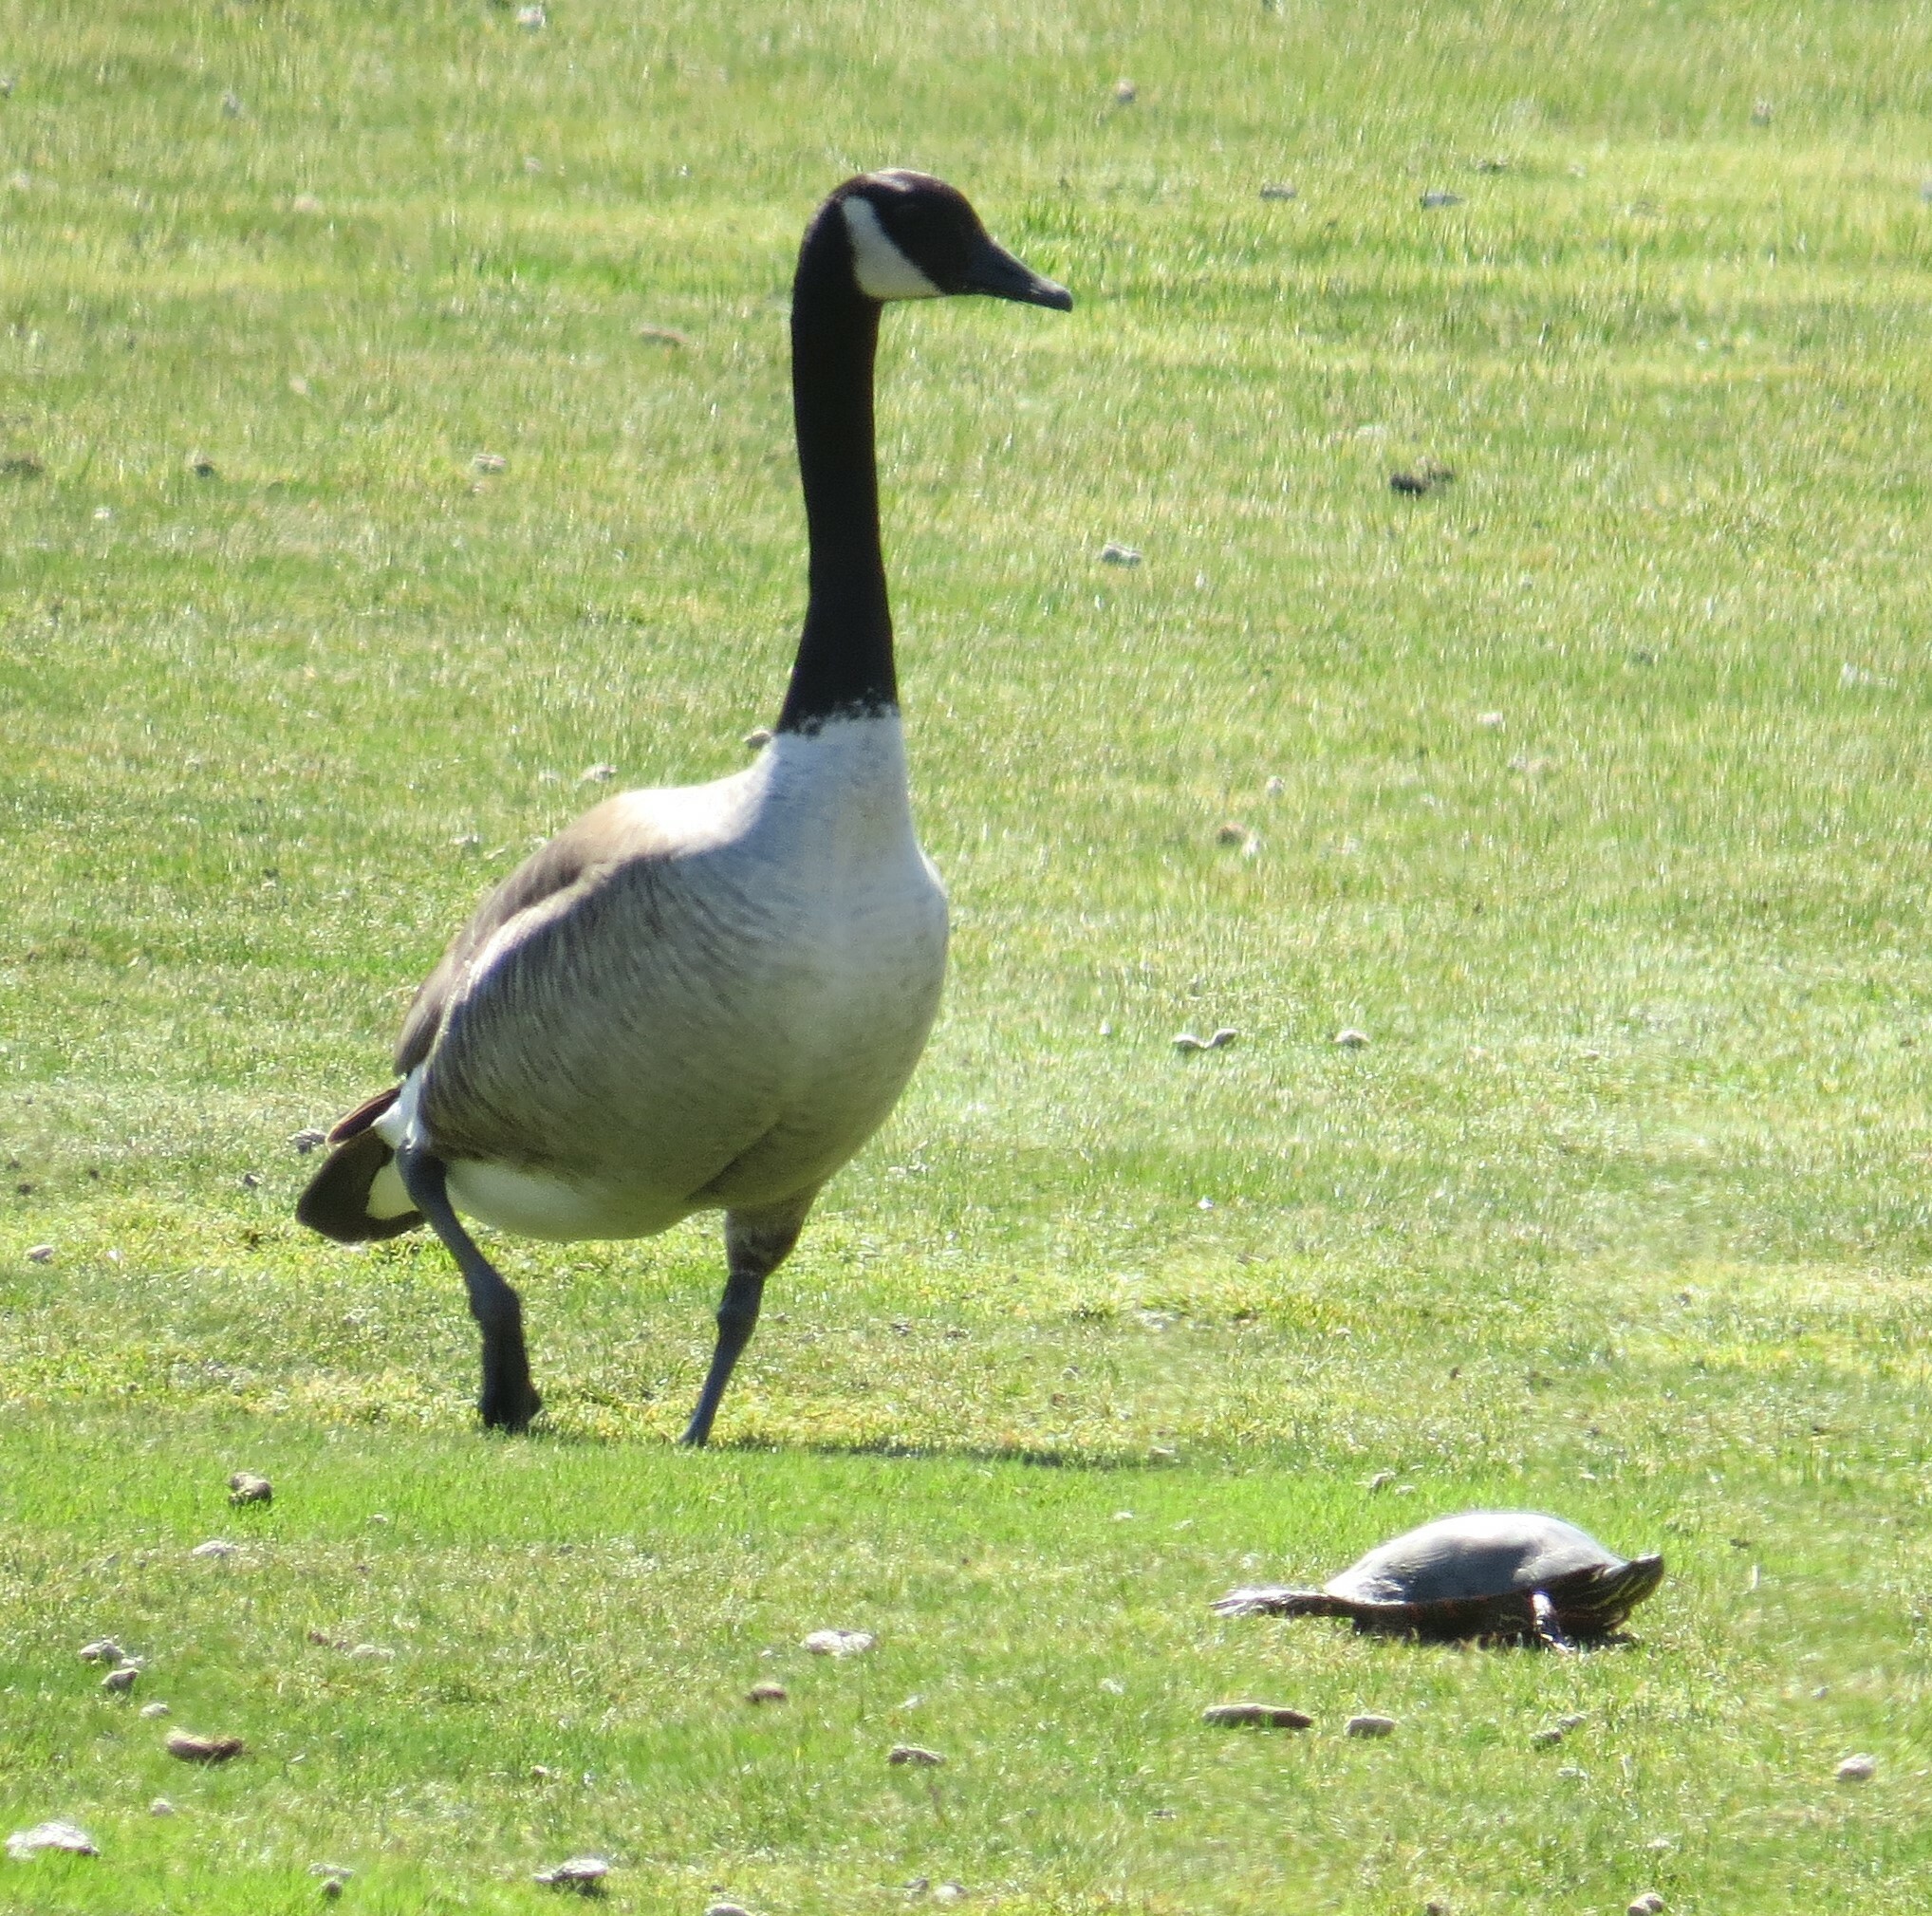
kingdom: Animalia
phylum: Chordata
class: Aves
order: Anseriformes
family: Anatidae
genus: Branta
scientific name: Branta canadensis
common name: Canada goose
